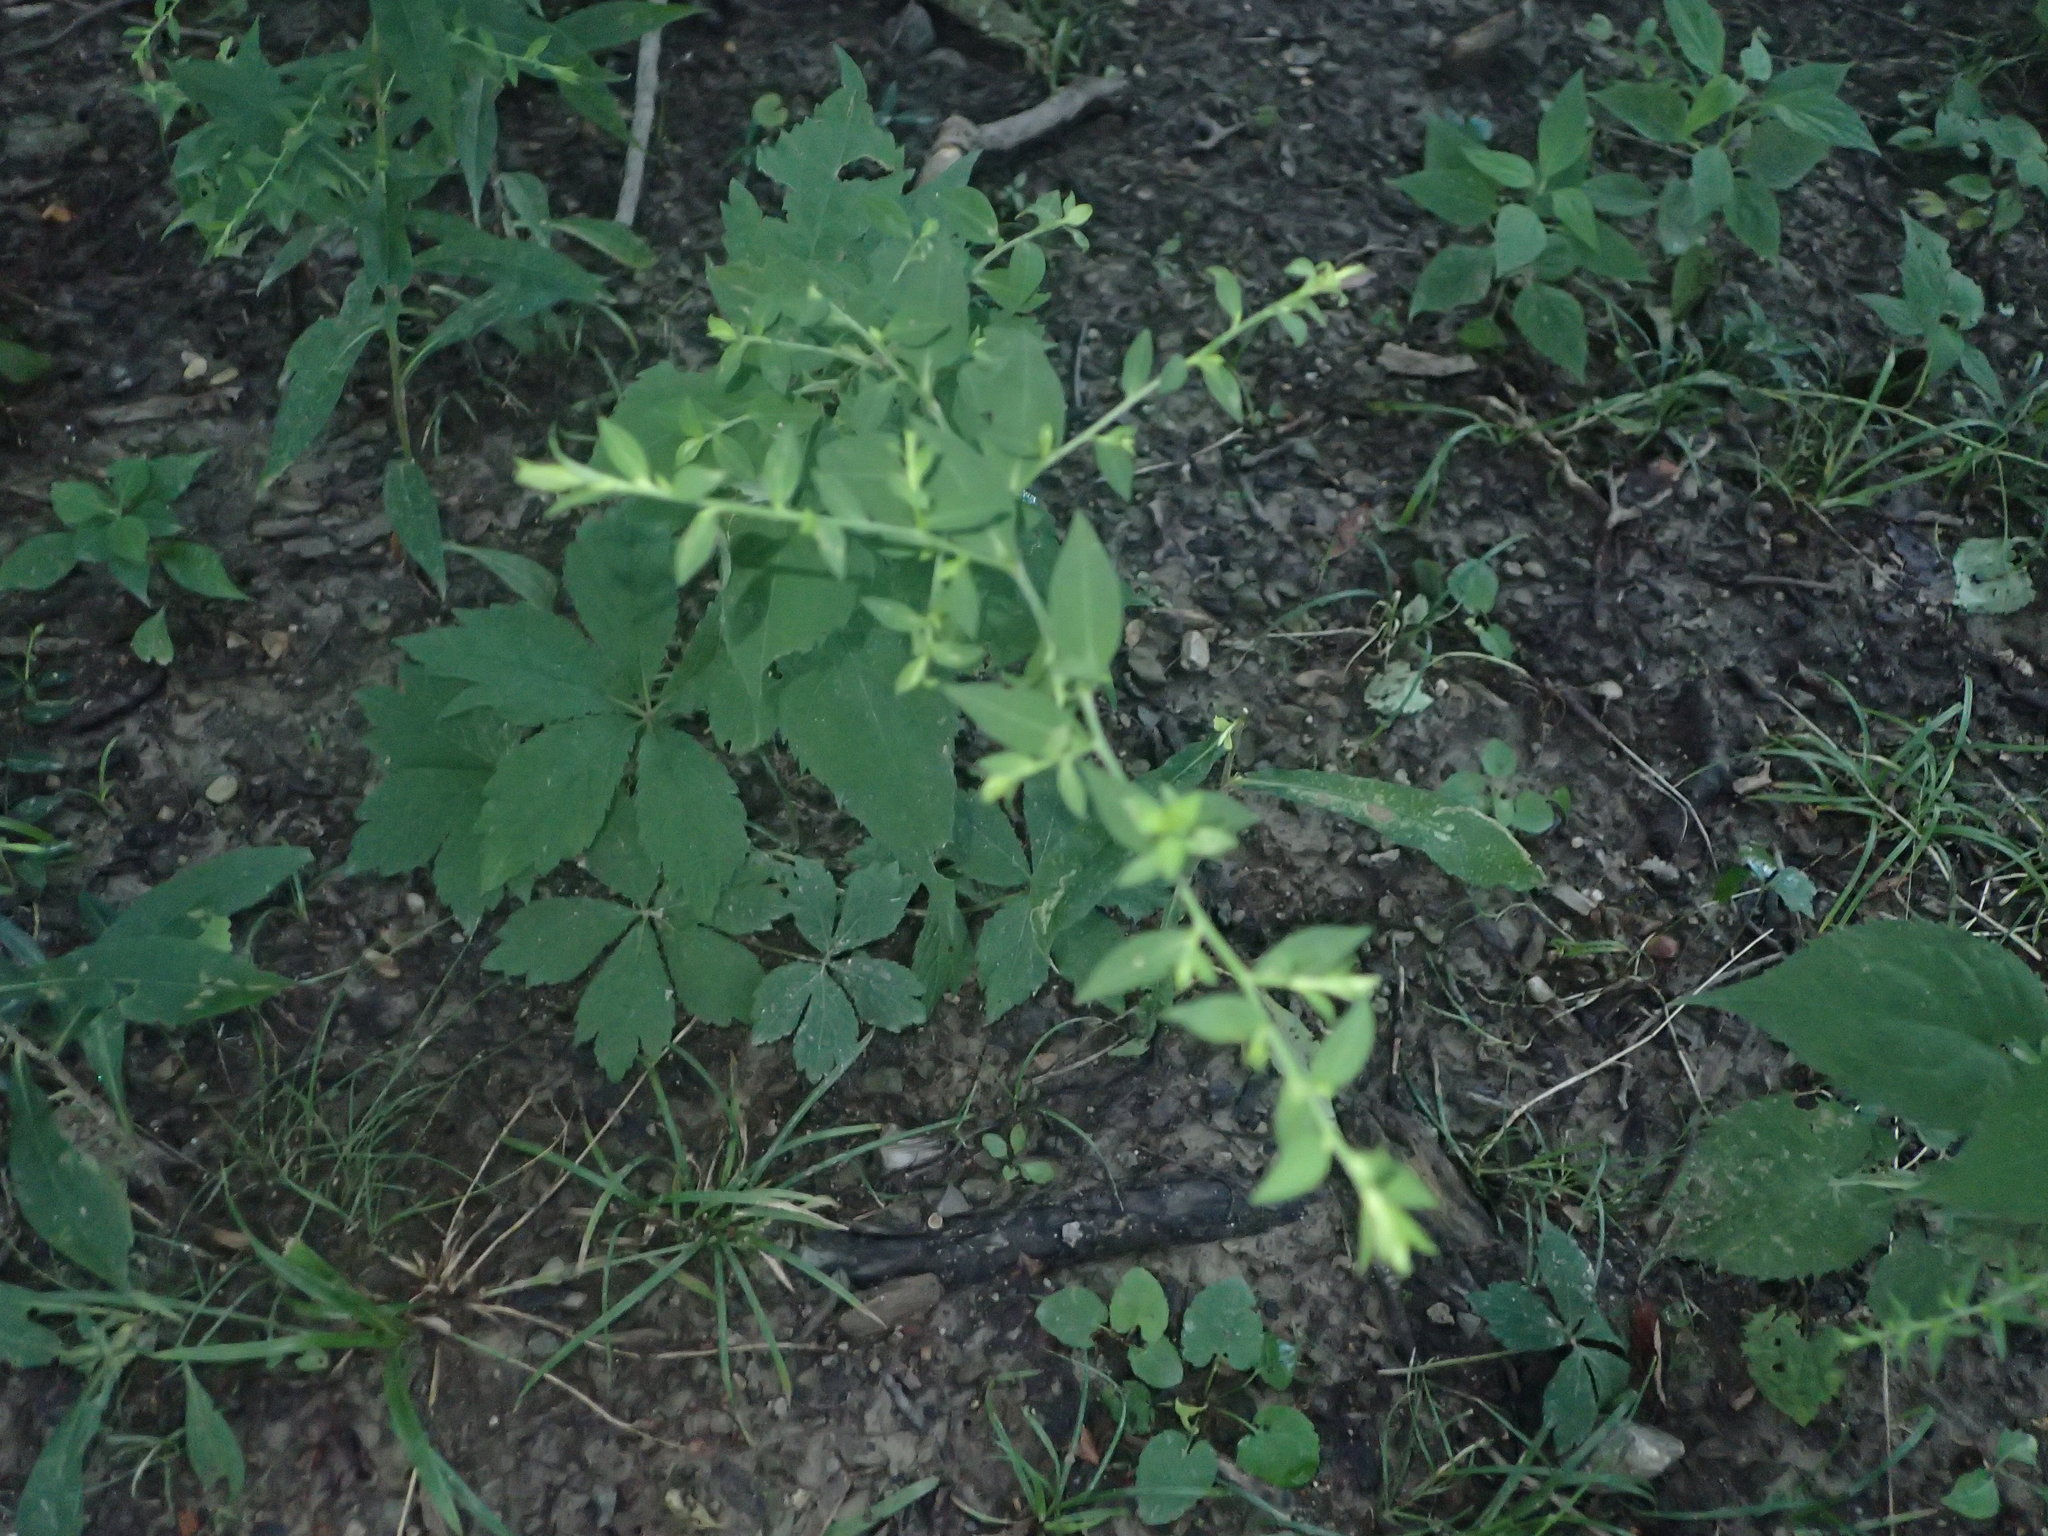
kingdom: Plantae
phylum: Tracheophyta
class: Magnoliopsida
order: Asterales
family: Asteraceae
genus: Symphyotrichum
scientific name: Symphyotrichum lateriflorum
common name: Calico aster
